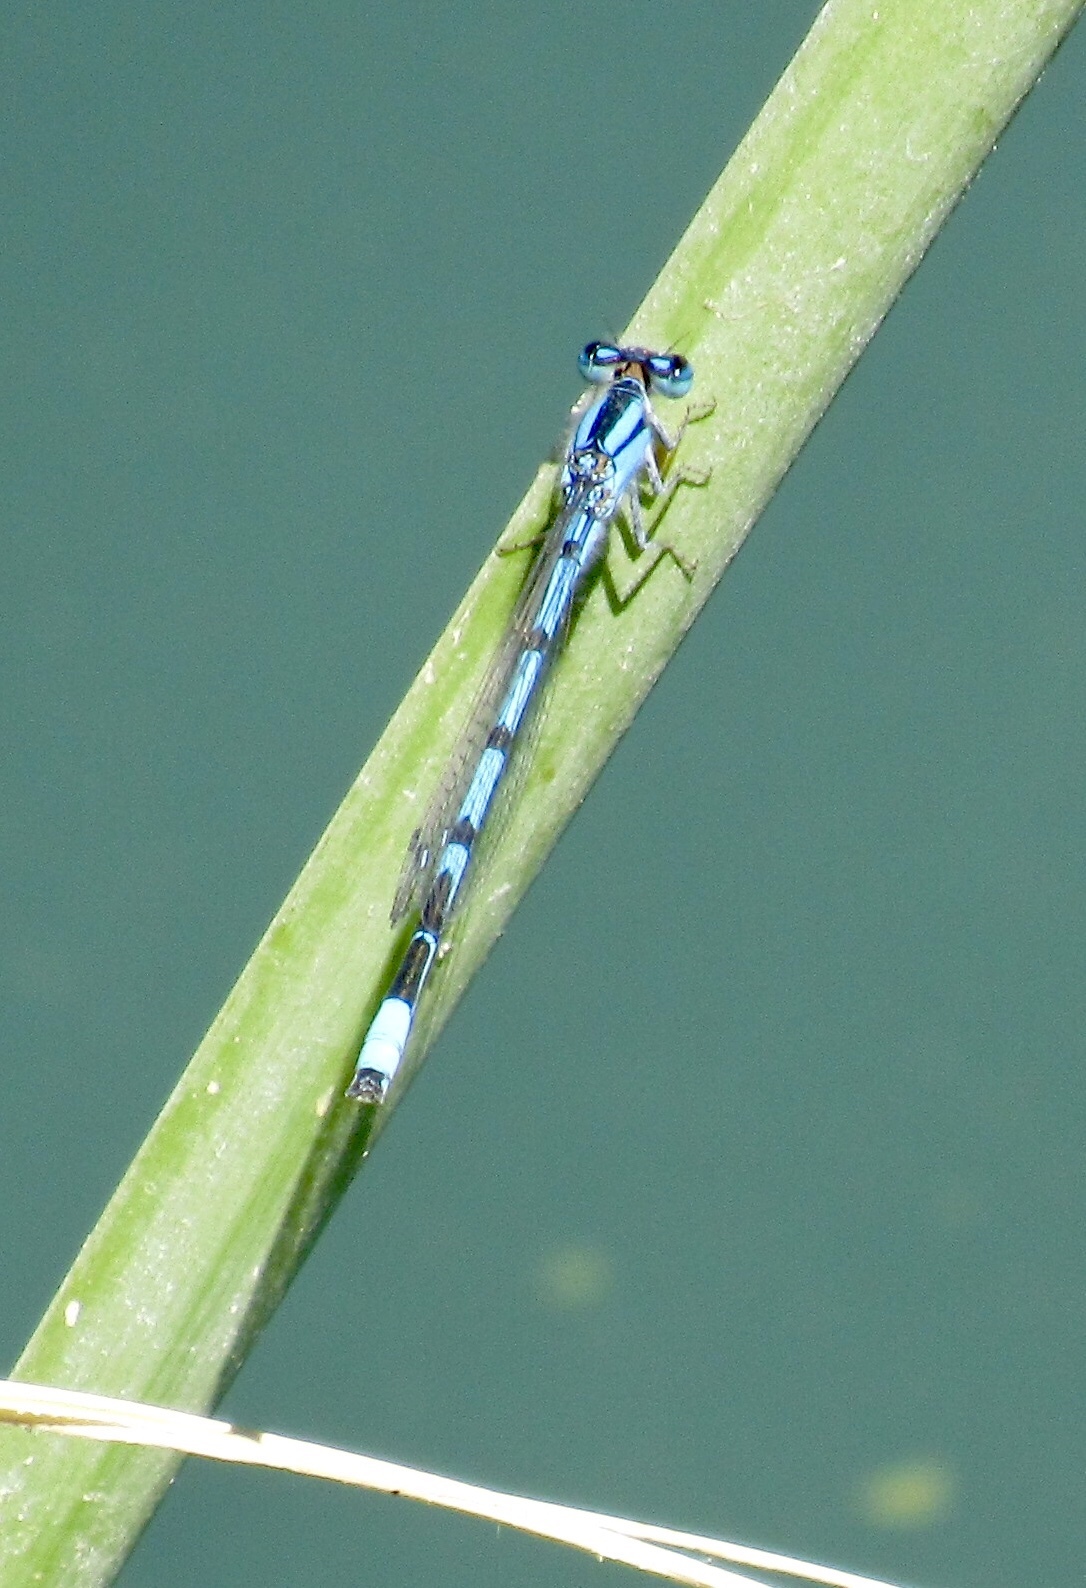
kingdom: Animalia
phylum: Arthropoda
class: Insecta
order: Odonata
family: Coenagrionidae
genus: Enallagma
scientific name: Enallagma civile
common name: Damselfly
